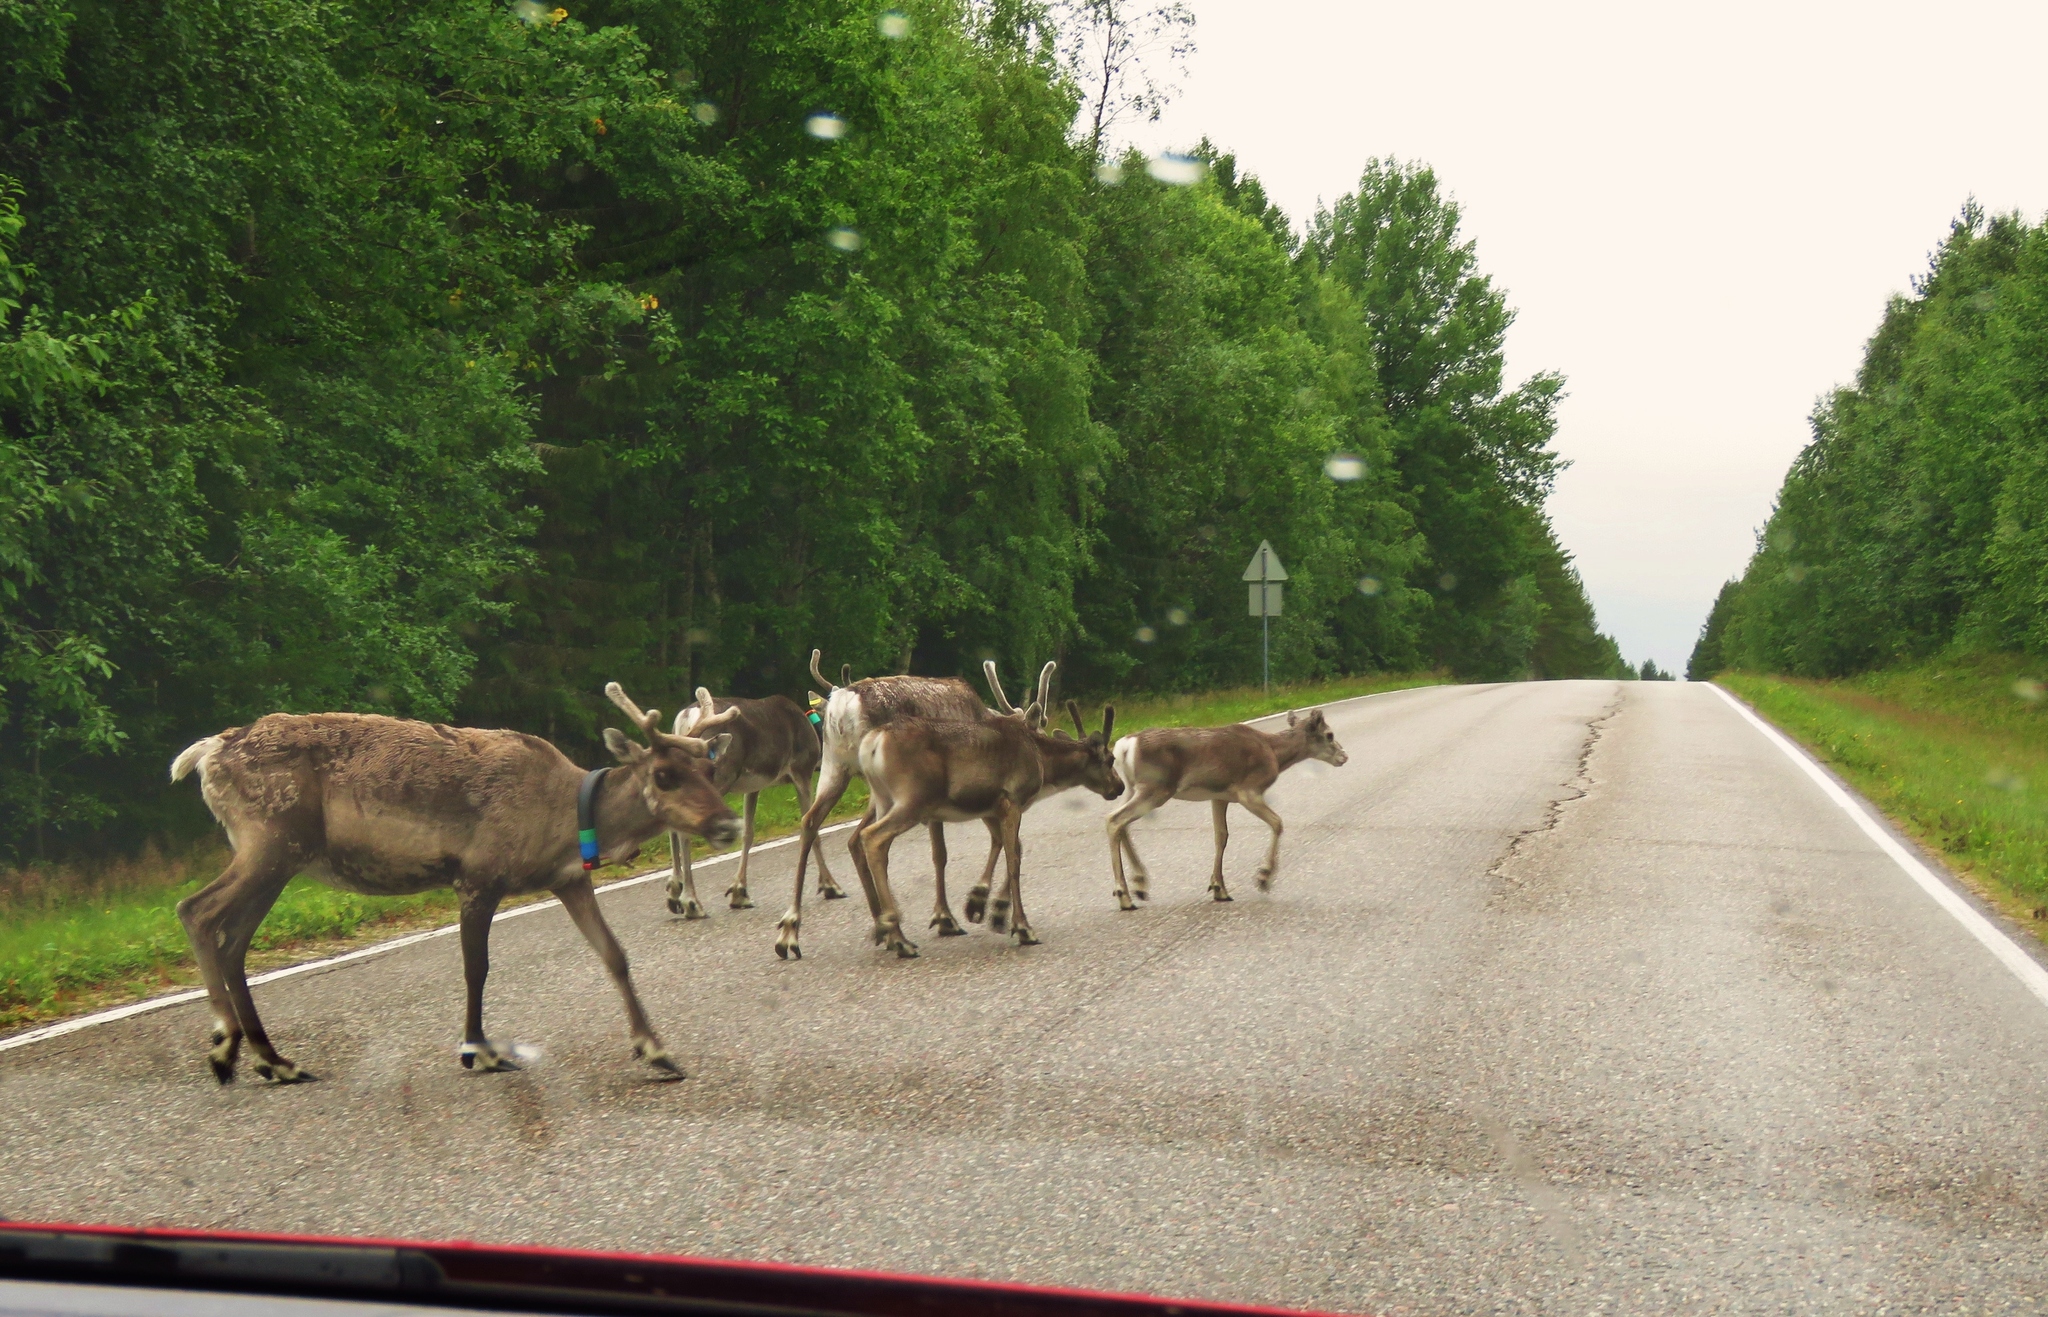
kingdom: Animalia
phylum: Chordata
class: Mammalia
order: Artiodactyla
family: Cervidae
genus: Rangifer
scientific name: Rangifer tarandus
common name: Reindeer
